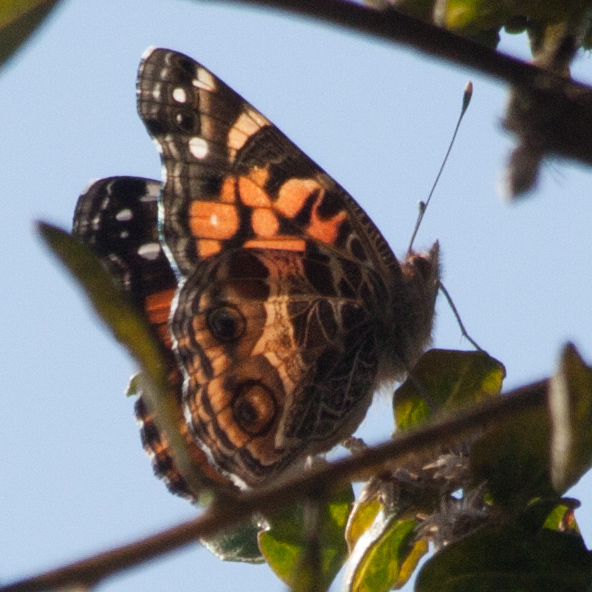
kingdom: Animalia
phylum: Arthropoda
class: Insecta
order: Lepidoptera
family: Nymphalidae
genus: Vanessa
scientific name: Vanessa virginiensis
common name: American lady
